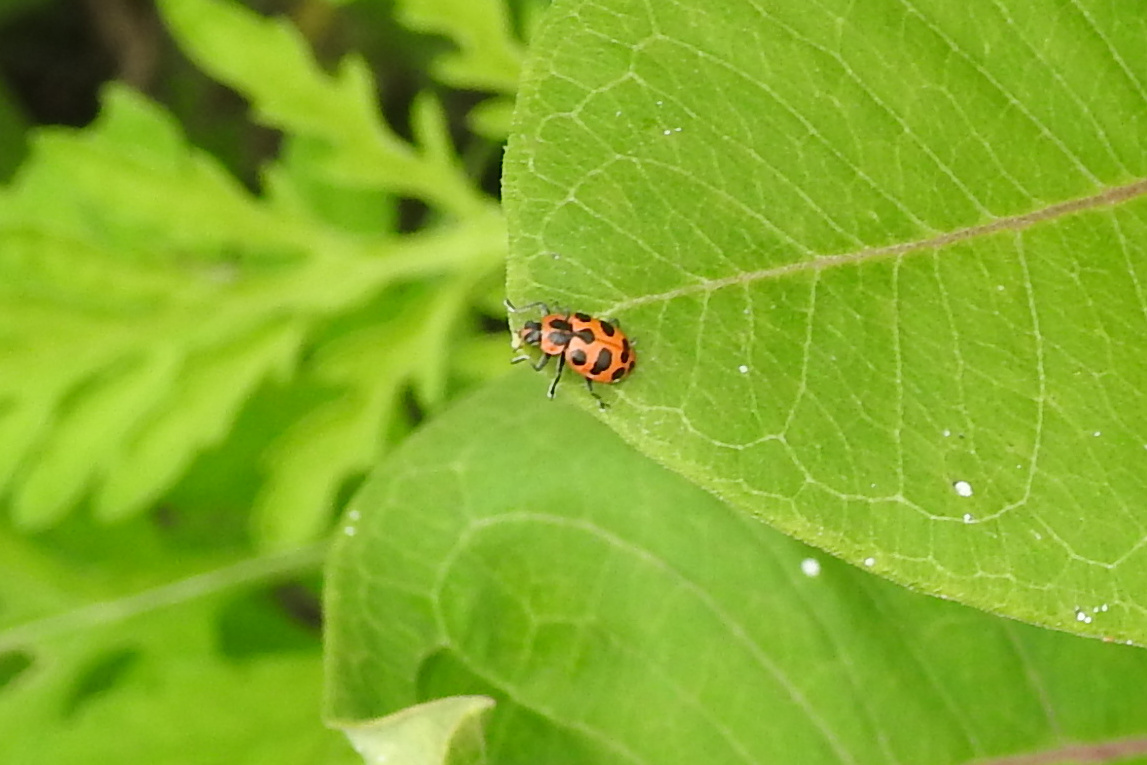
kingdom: Animalia
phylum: Arthropoda
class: Insecta
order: Coleoptera
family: Coccinellidae
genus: Coleomegilla
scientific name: Coleomegilla maculata
